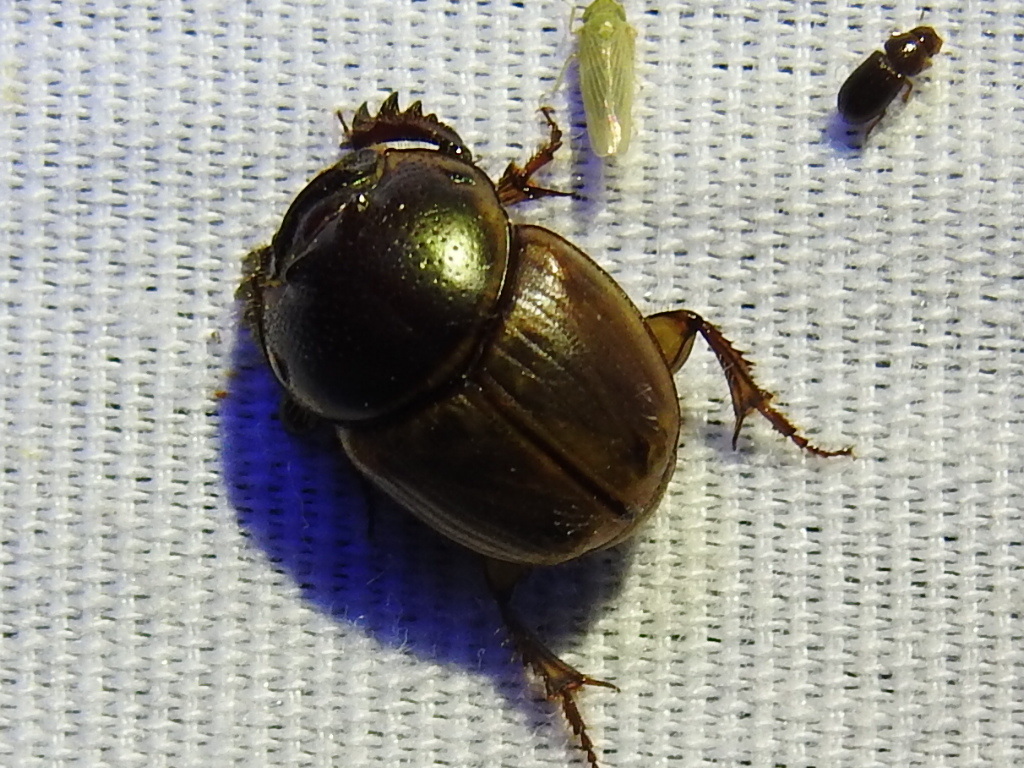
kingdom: Animalia
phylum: Arthropoda
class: Insecta
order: Coleoptera
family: Scarabaeidae
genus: Digitonthophagus
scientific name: Digitonthophagus gazella
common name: Brown dung beetle
